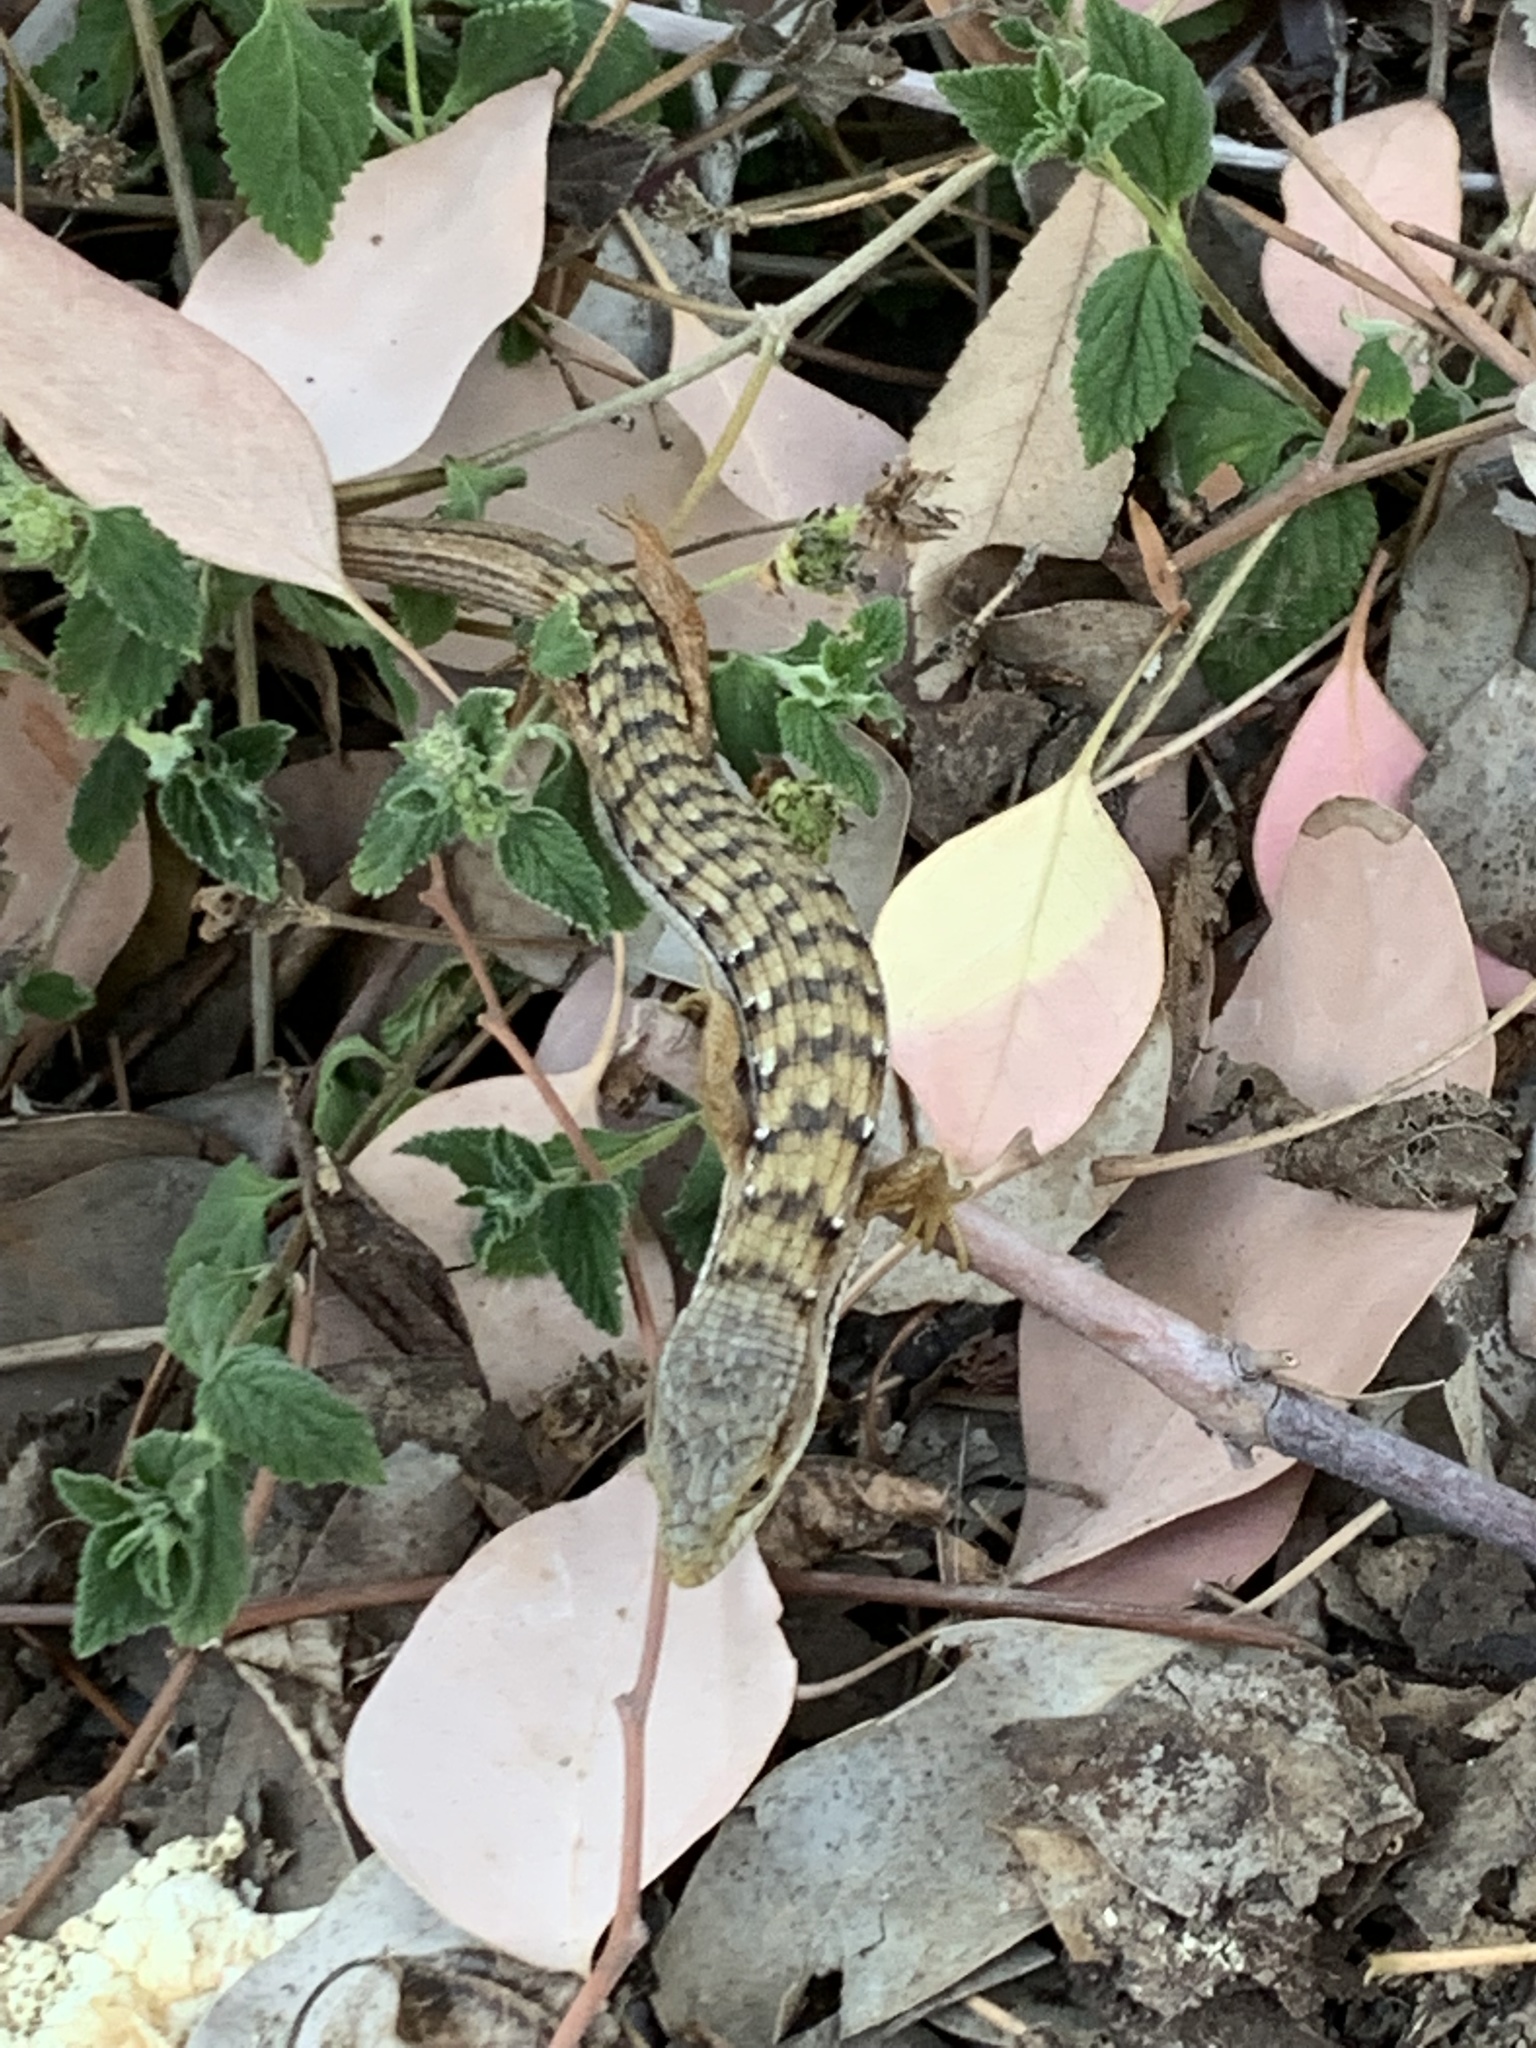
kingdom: Animalia
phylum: Chordata
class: Squamata
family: Anguidae
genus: Elgaria
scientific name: Elgaria multicarinata
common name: Southern alligator lizard
